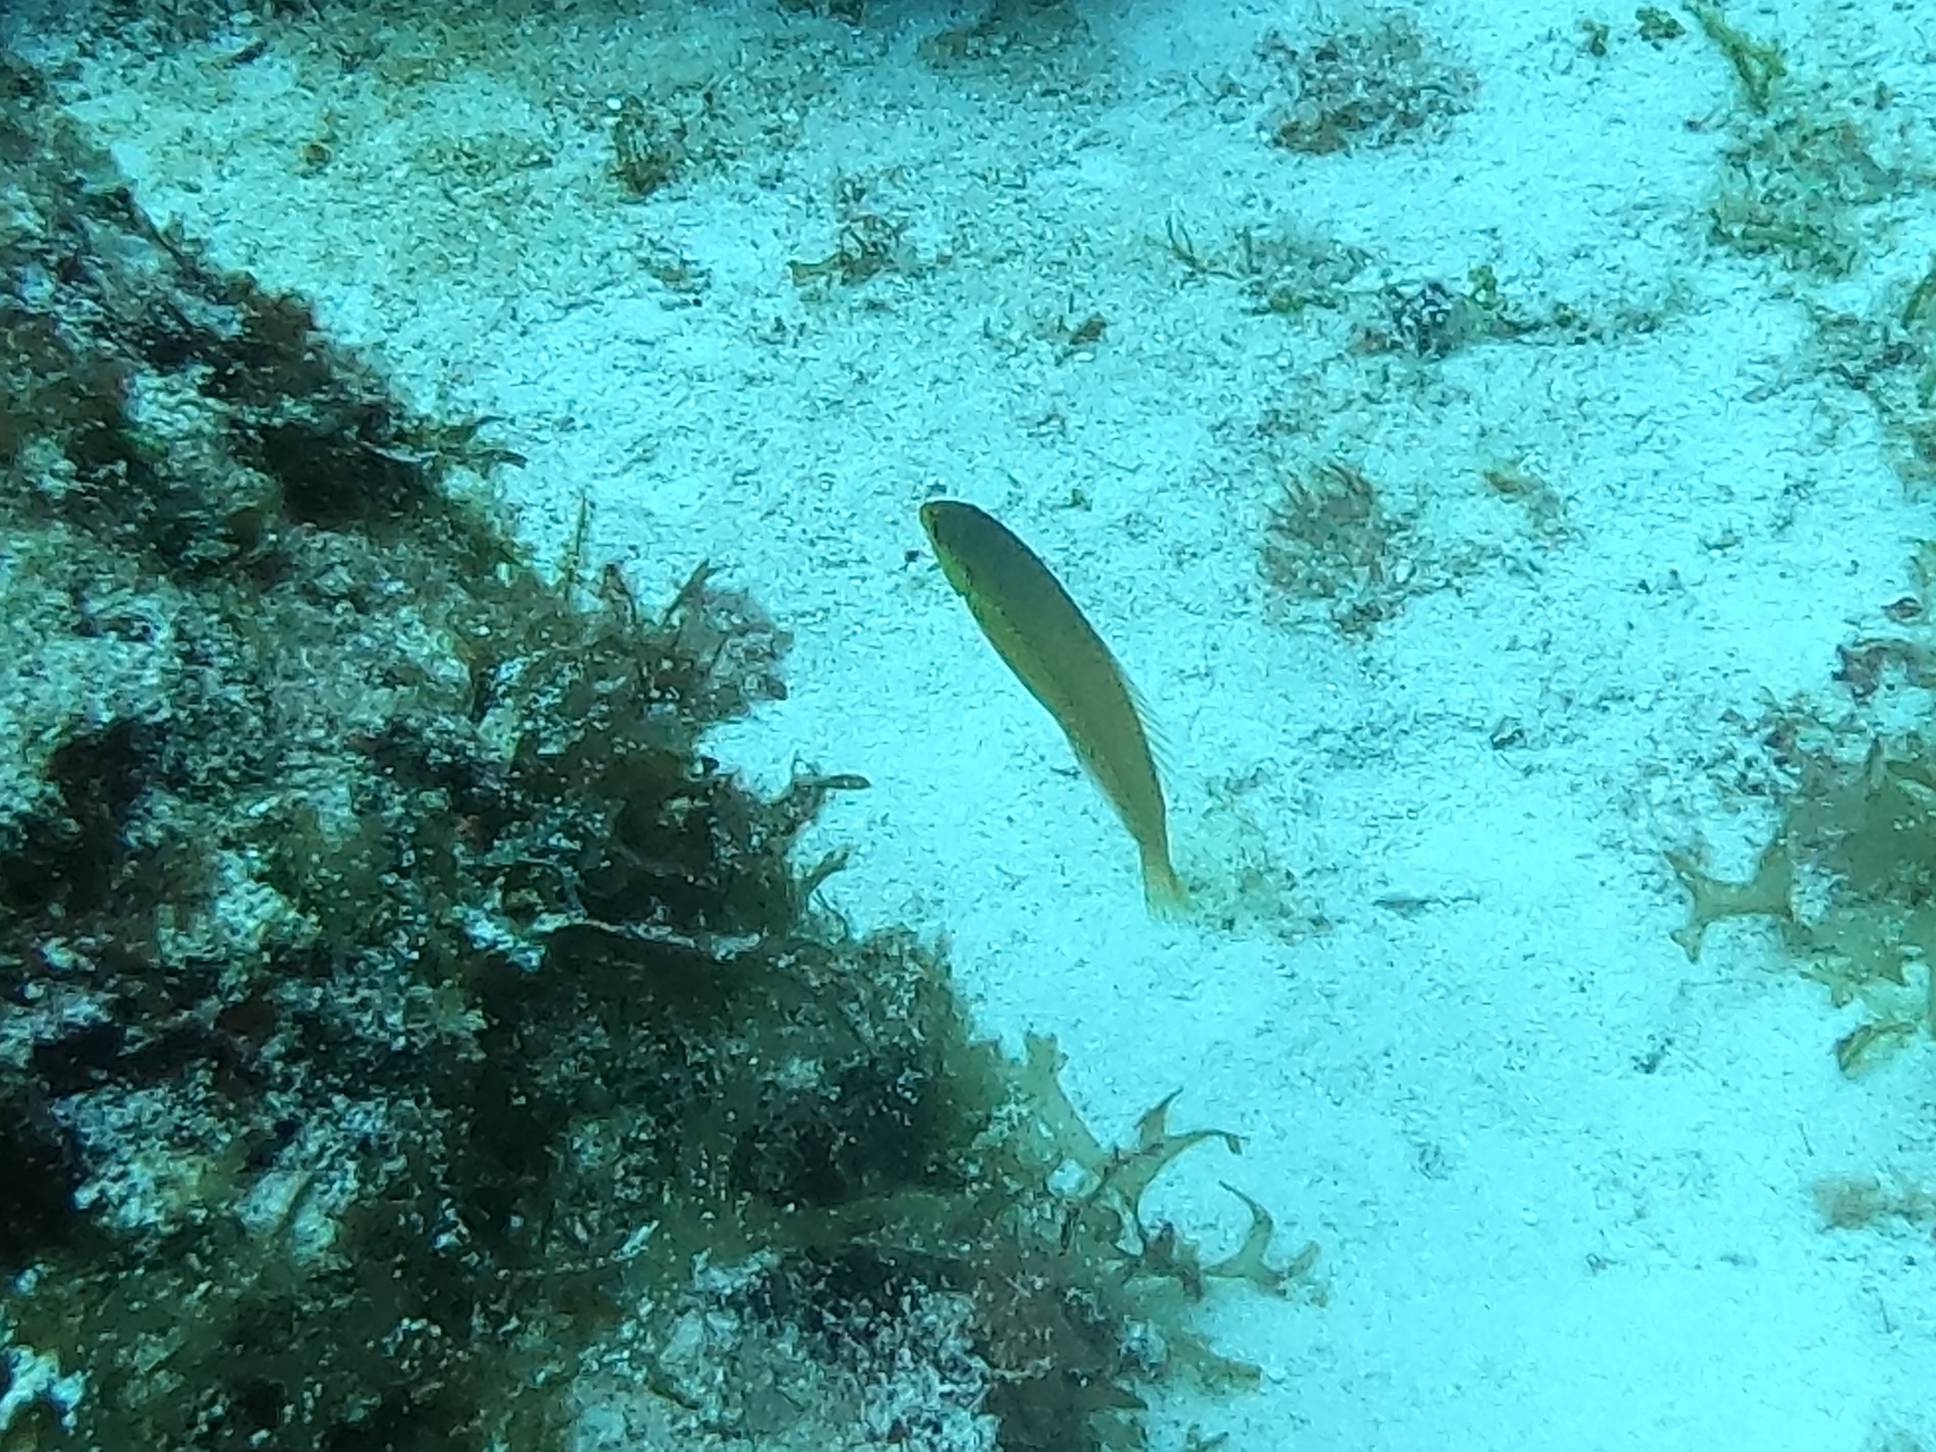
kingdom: Animalia
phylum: Chordata
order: Perciformes
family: Labridae
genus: Halichoeres
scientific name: Halichoeres garnoti
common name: Yellowhead wrasse
